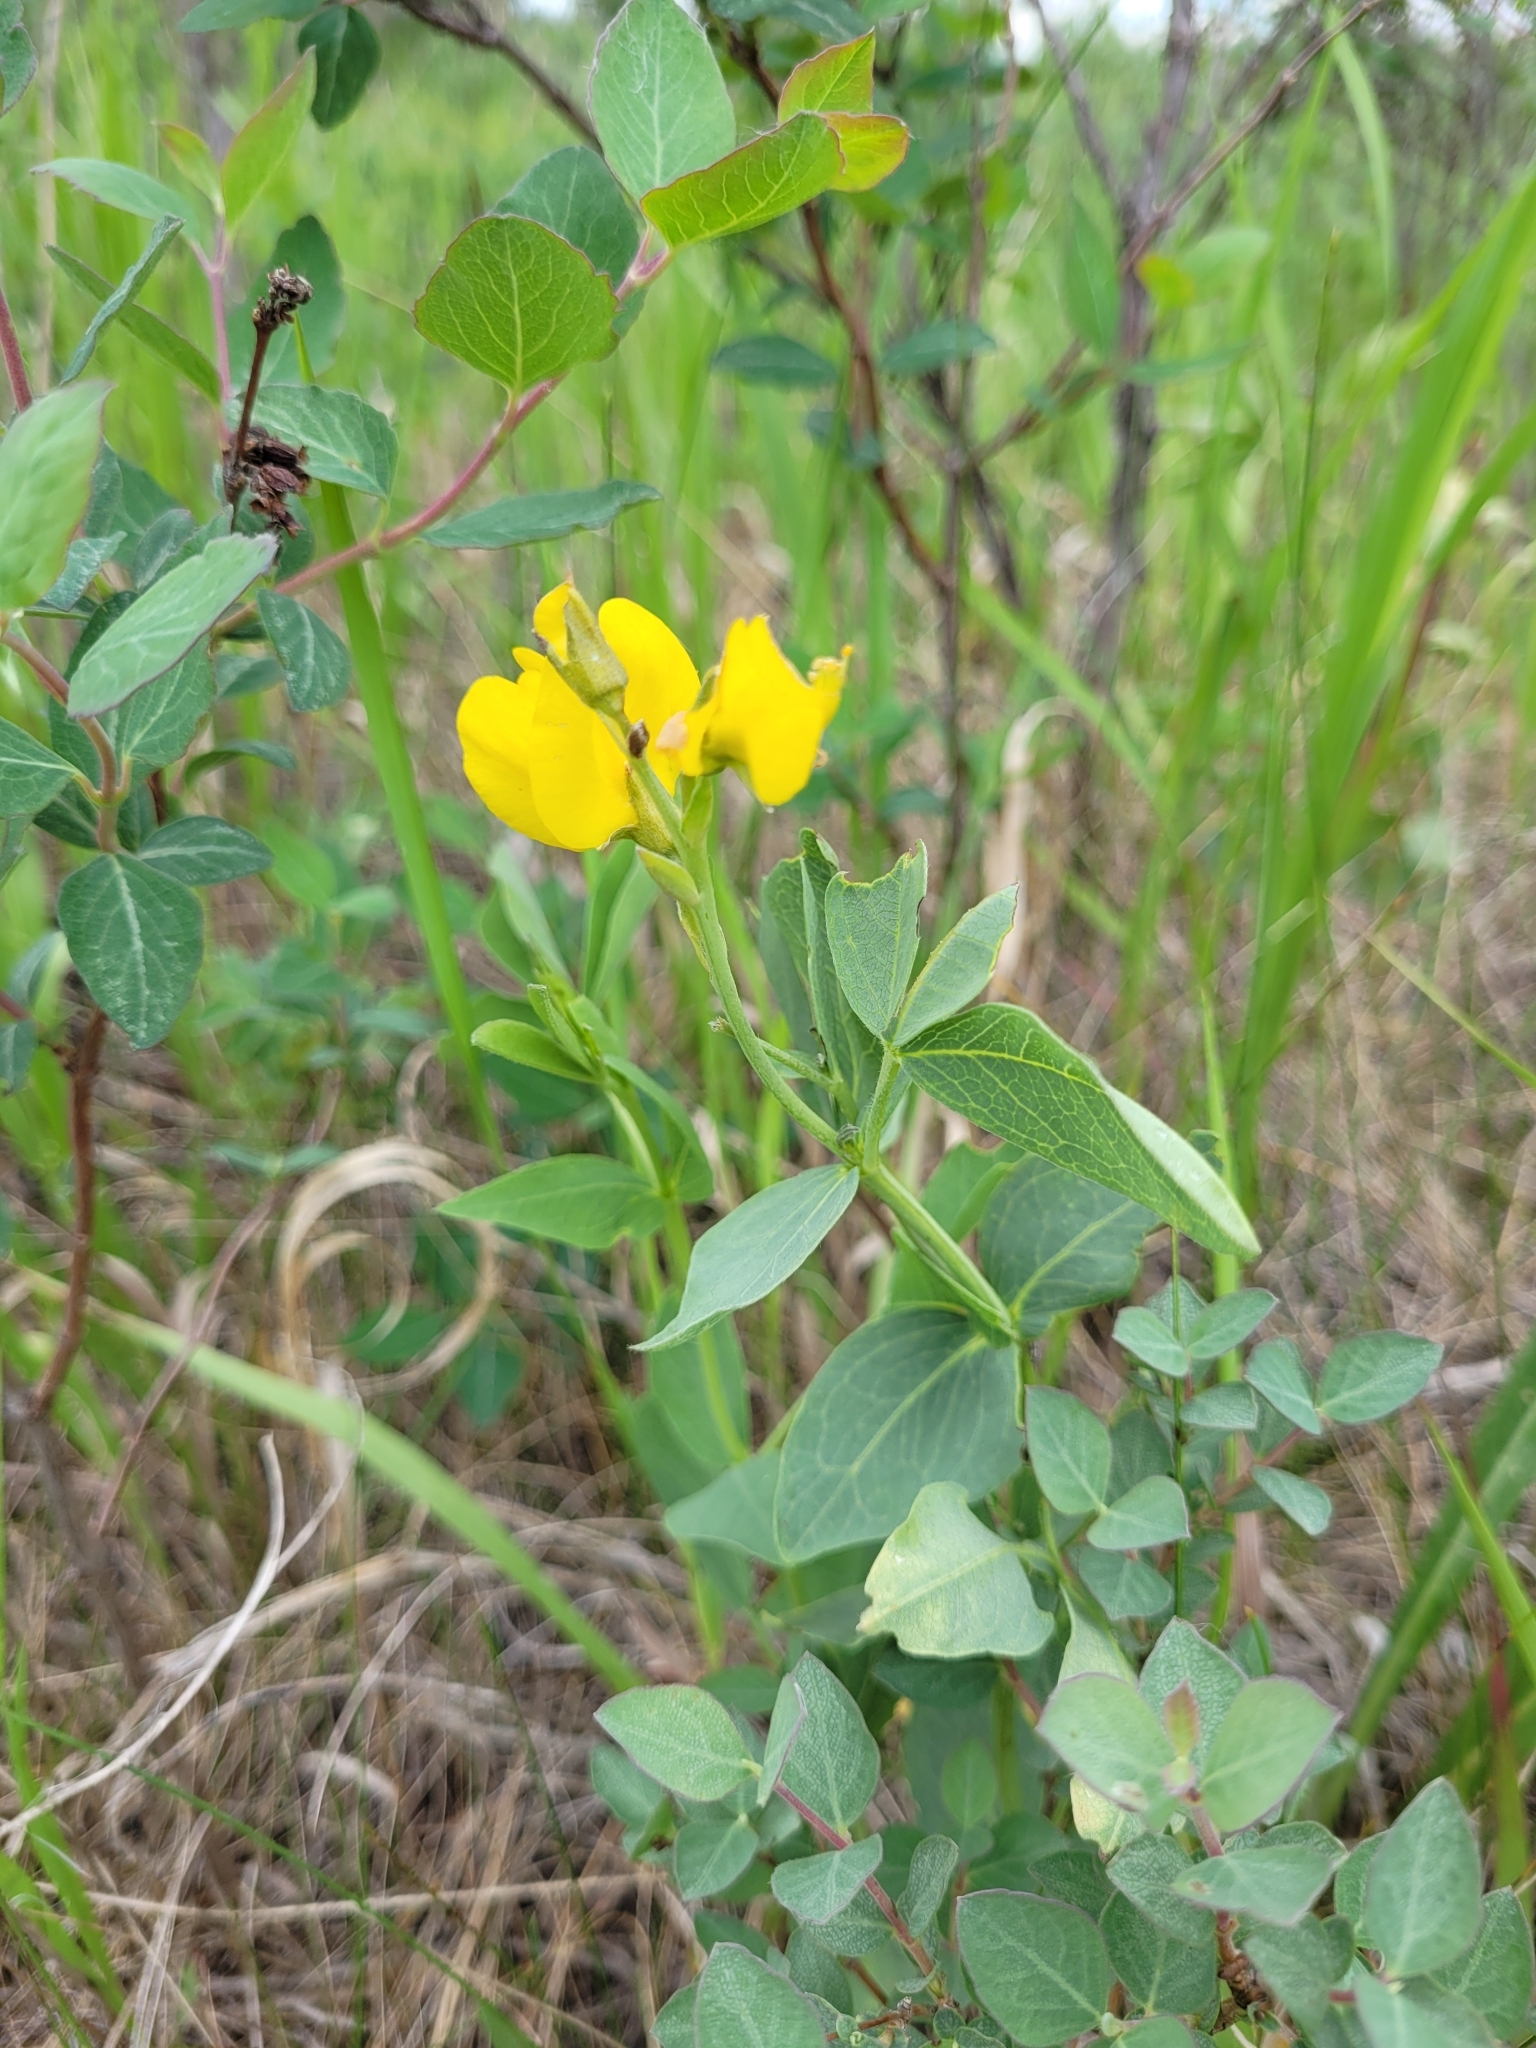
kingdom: Plantae
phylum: Tracheophyta
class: Magnoliopsida
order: Fabales
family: Fabaceae
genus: Thermopsis
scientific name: Thermopsis rhombifolia
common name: Circle-pod-pea
